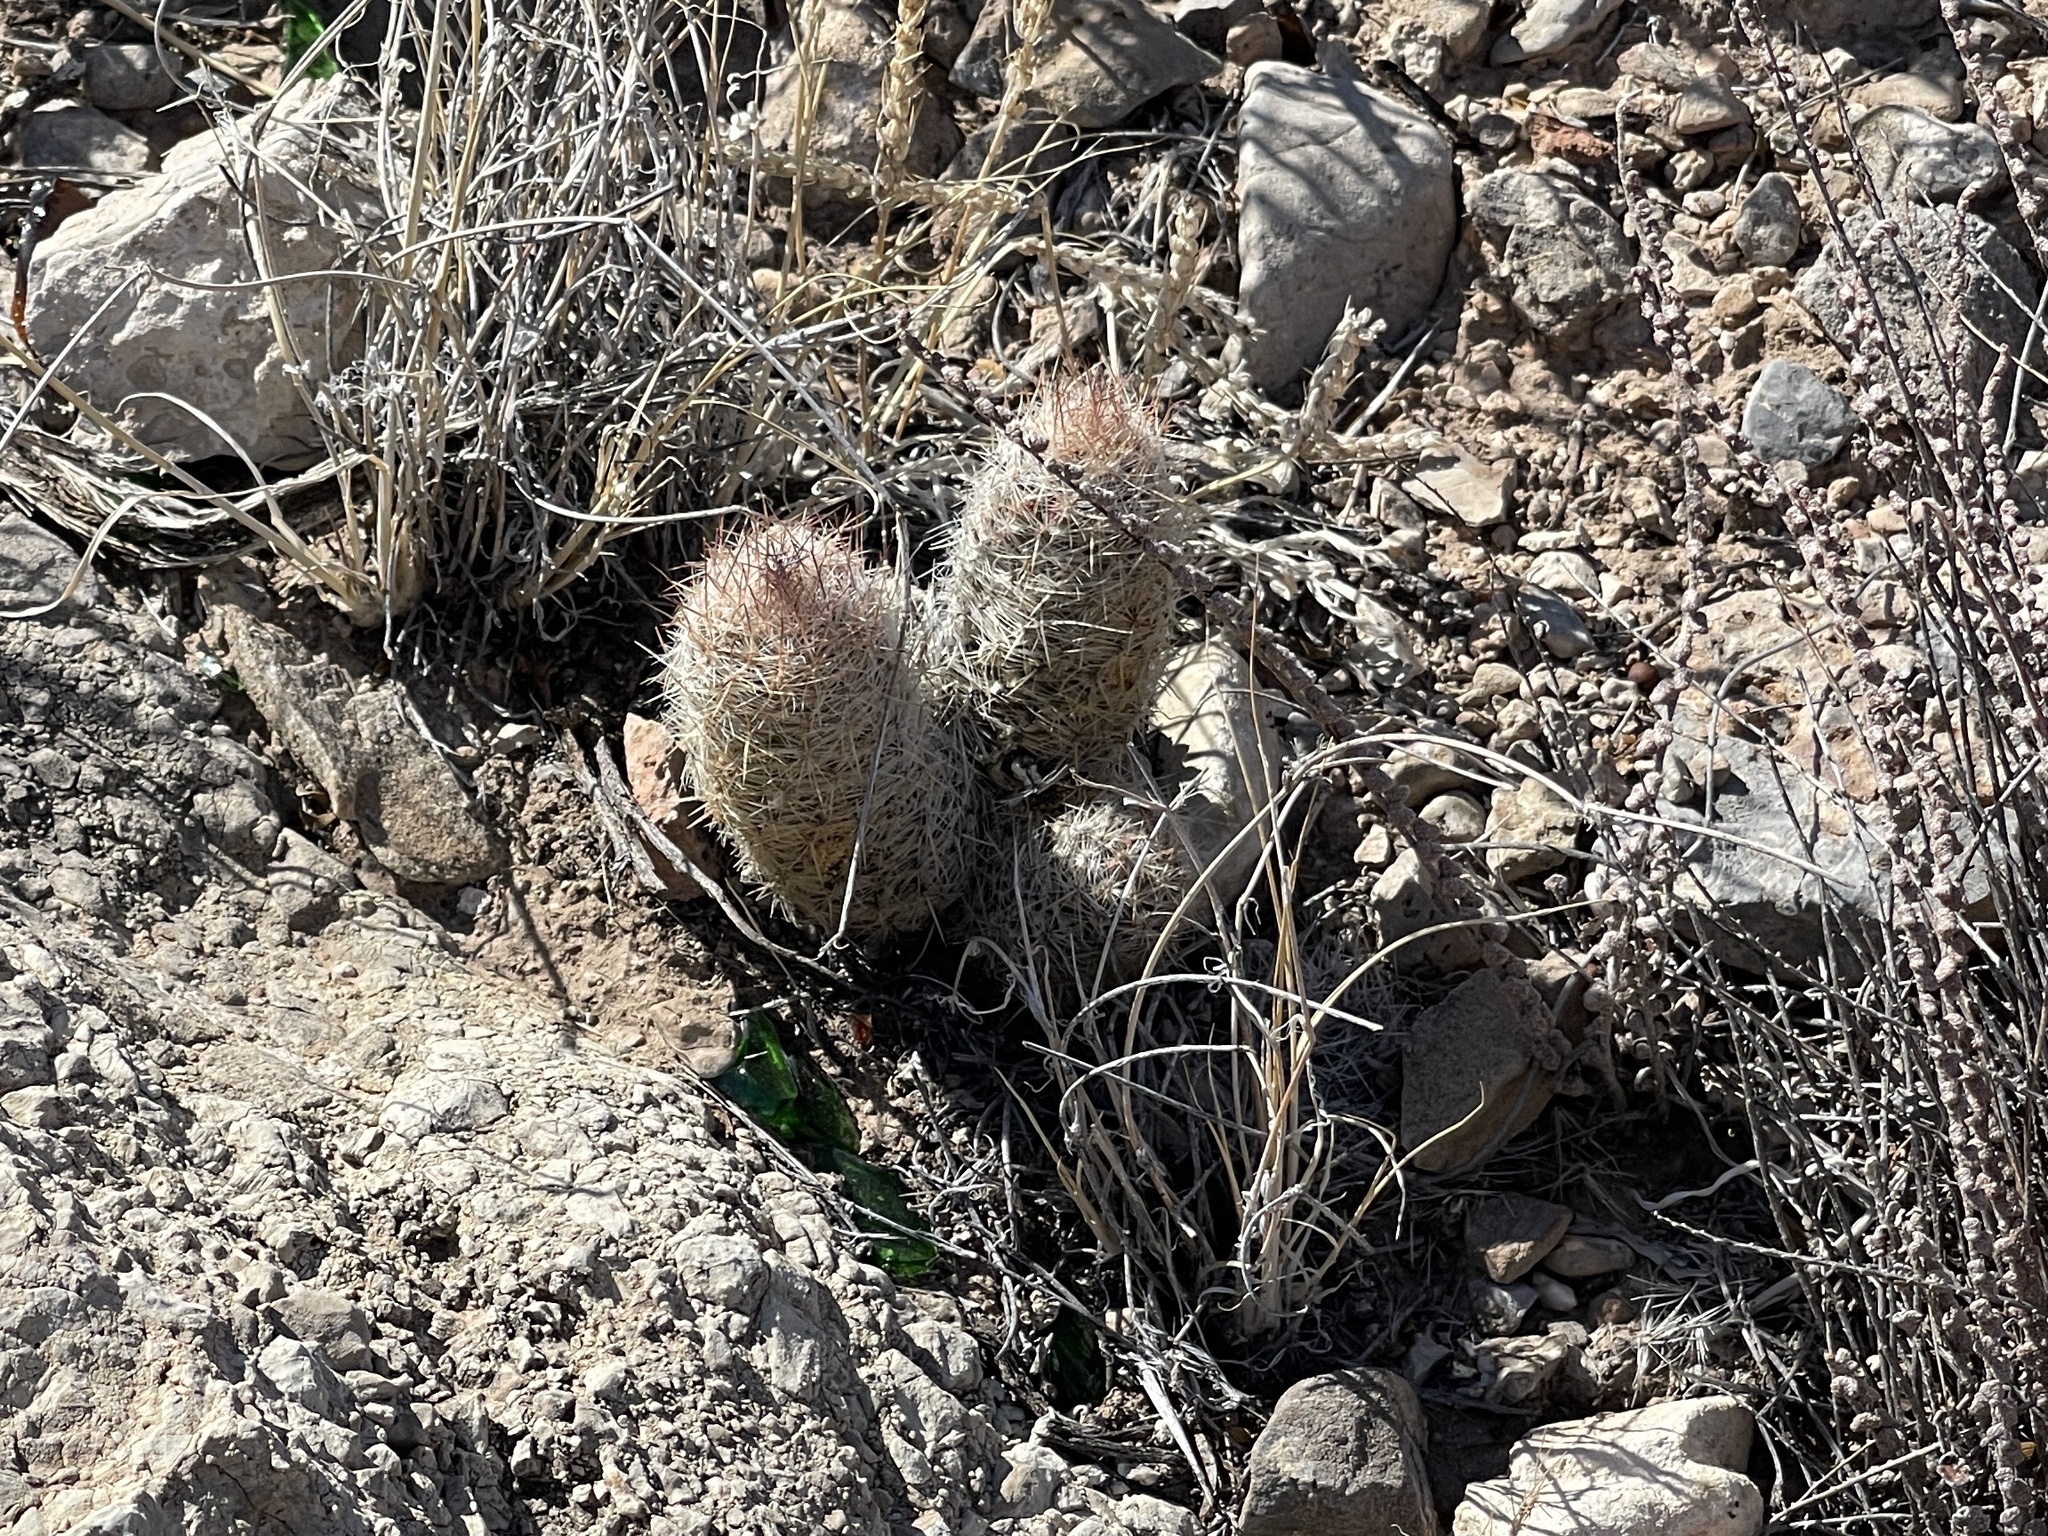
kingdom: Plantae
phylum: Tracheophyta
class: Magnoliopsida
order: Caryophyllales
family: Cactaceae
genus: Pelecyphora
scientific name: Pelecyphora tuberculosa
